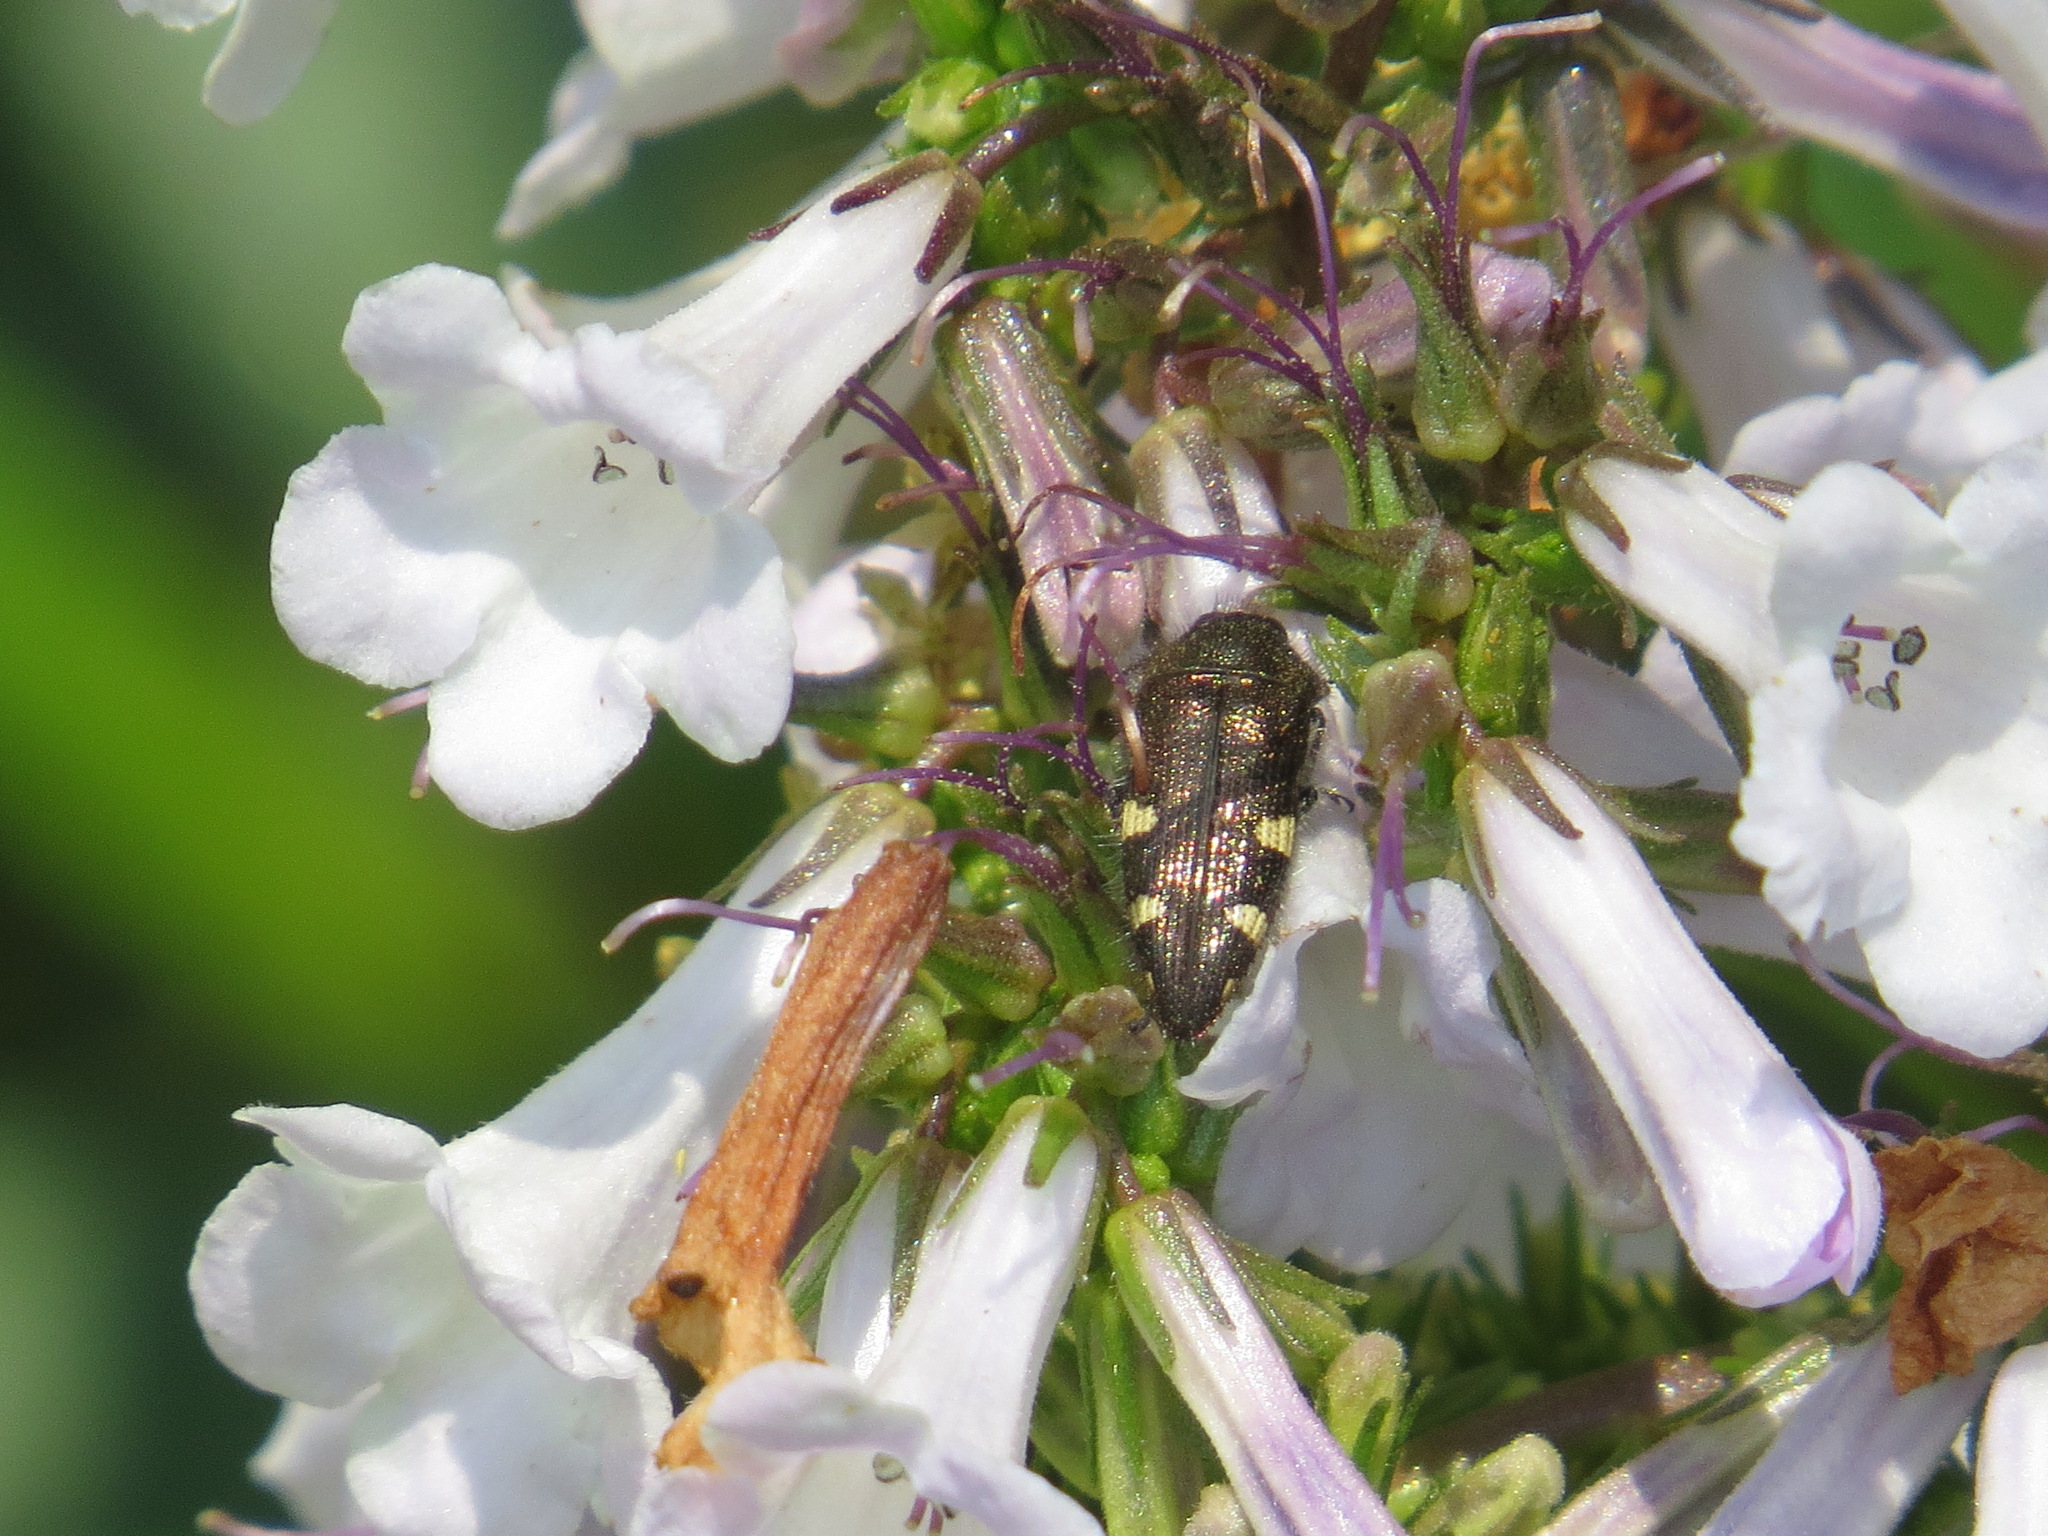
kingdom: Animalia
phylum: Arthropoda
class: Insecta
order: Coleoptera
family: Buprestidae
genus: Acmaeodera
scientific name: Acmaeodera prorsa
